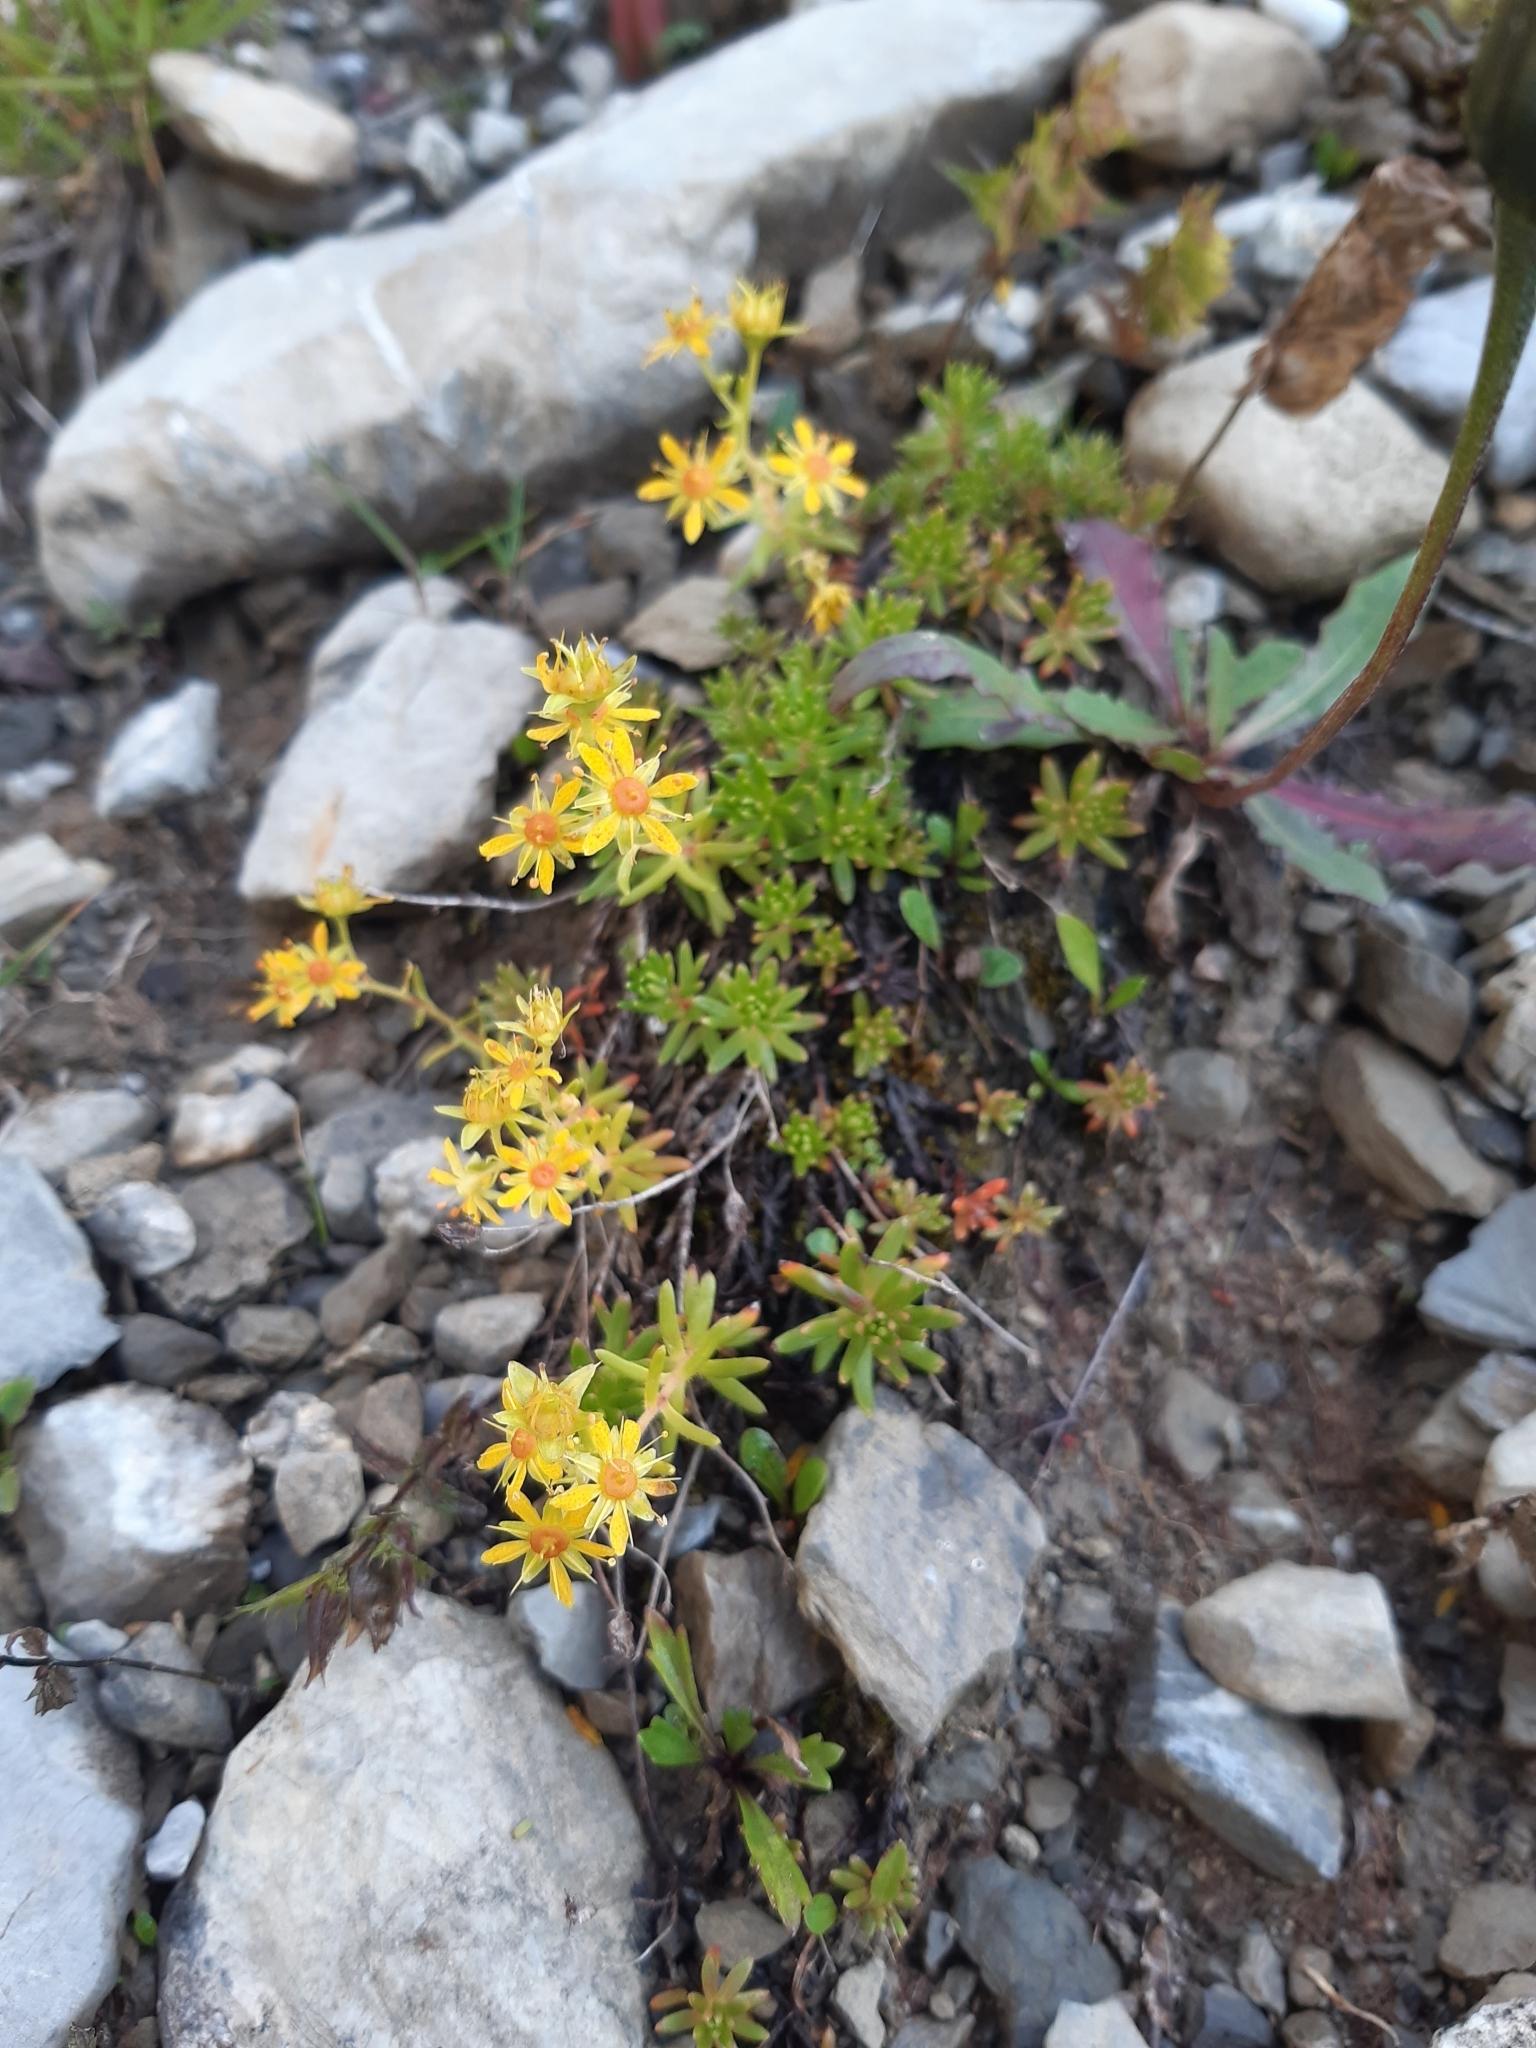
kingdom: Plantae
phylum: Tracheophyta
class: Magnoliopsida
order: Saxifragales
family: Saxifragaceae
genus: Saxifraga
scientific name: Saxifraga aizoides
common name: Yellow mountain saxifrage
